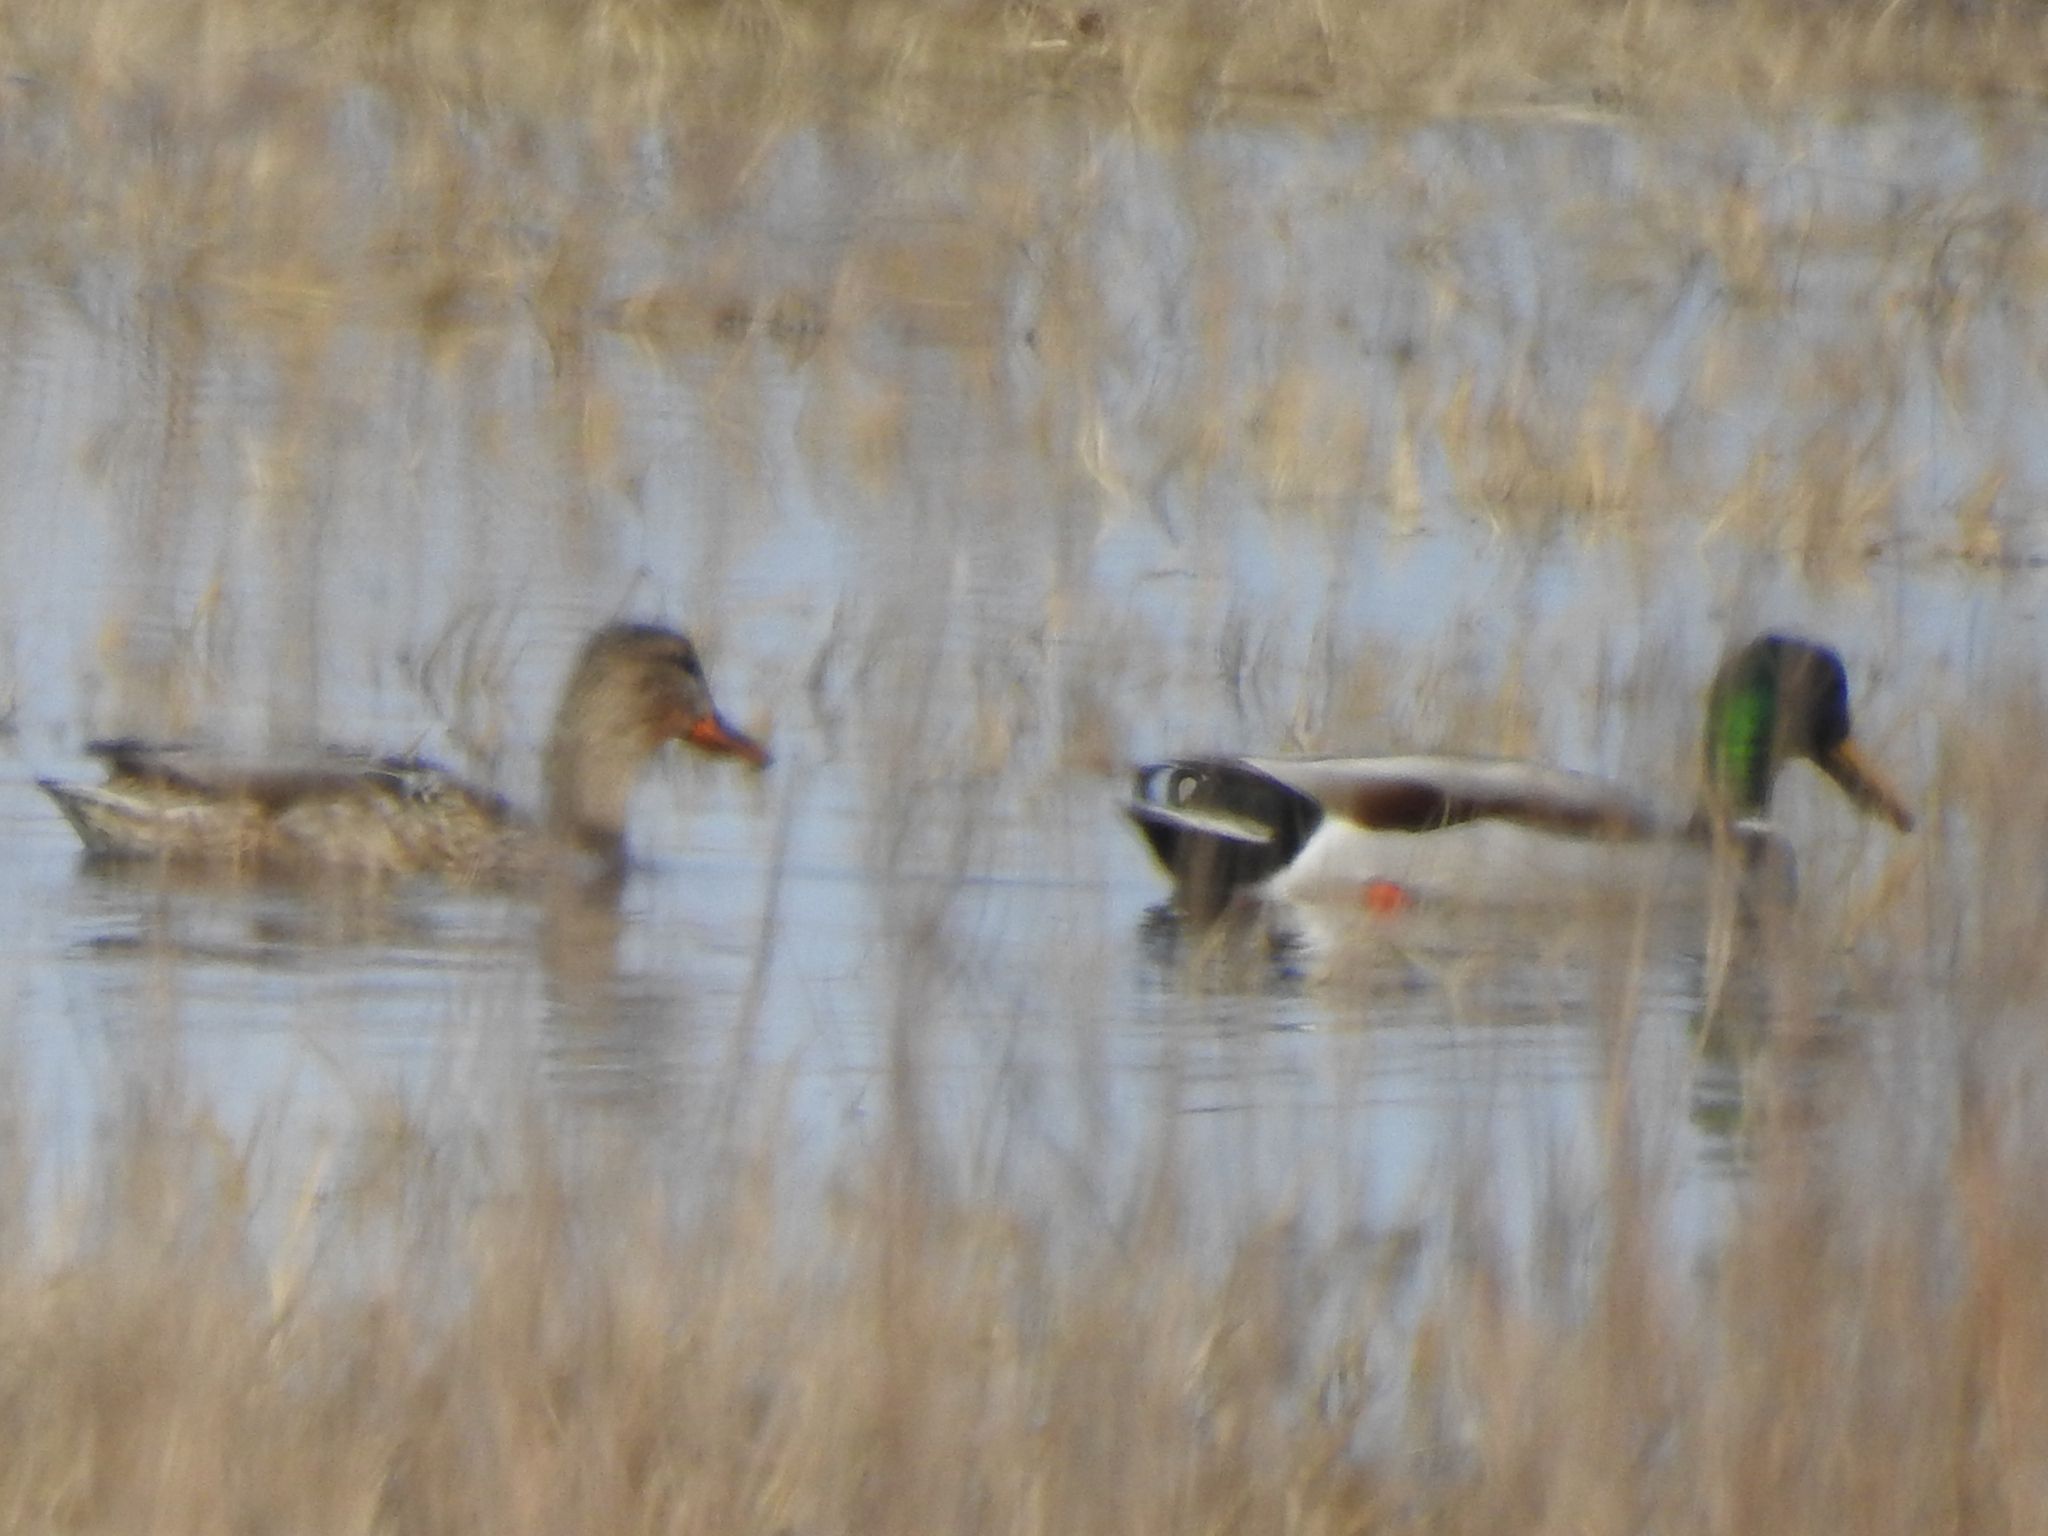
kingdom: Animalia
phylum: Chordata
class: Aves
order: Anseriformes
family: Anatidae
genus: Anas
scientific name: Anas platyrhynchos
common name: Mallard
